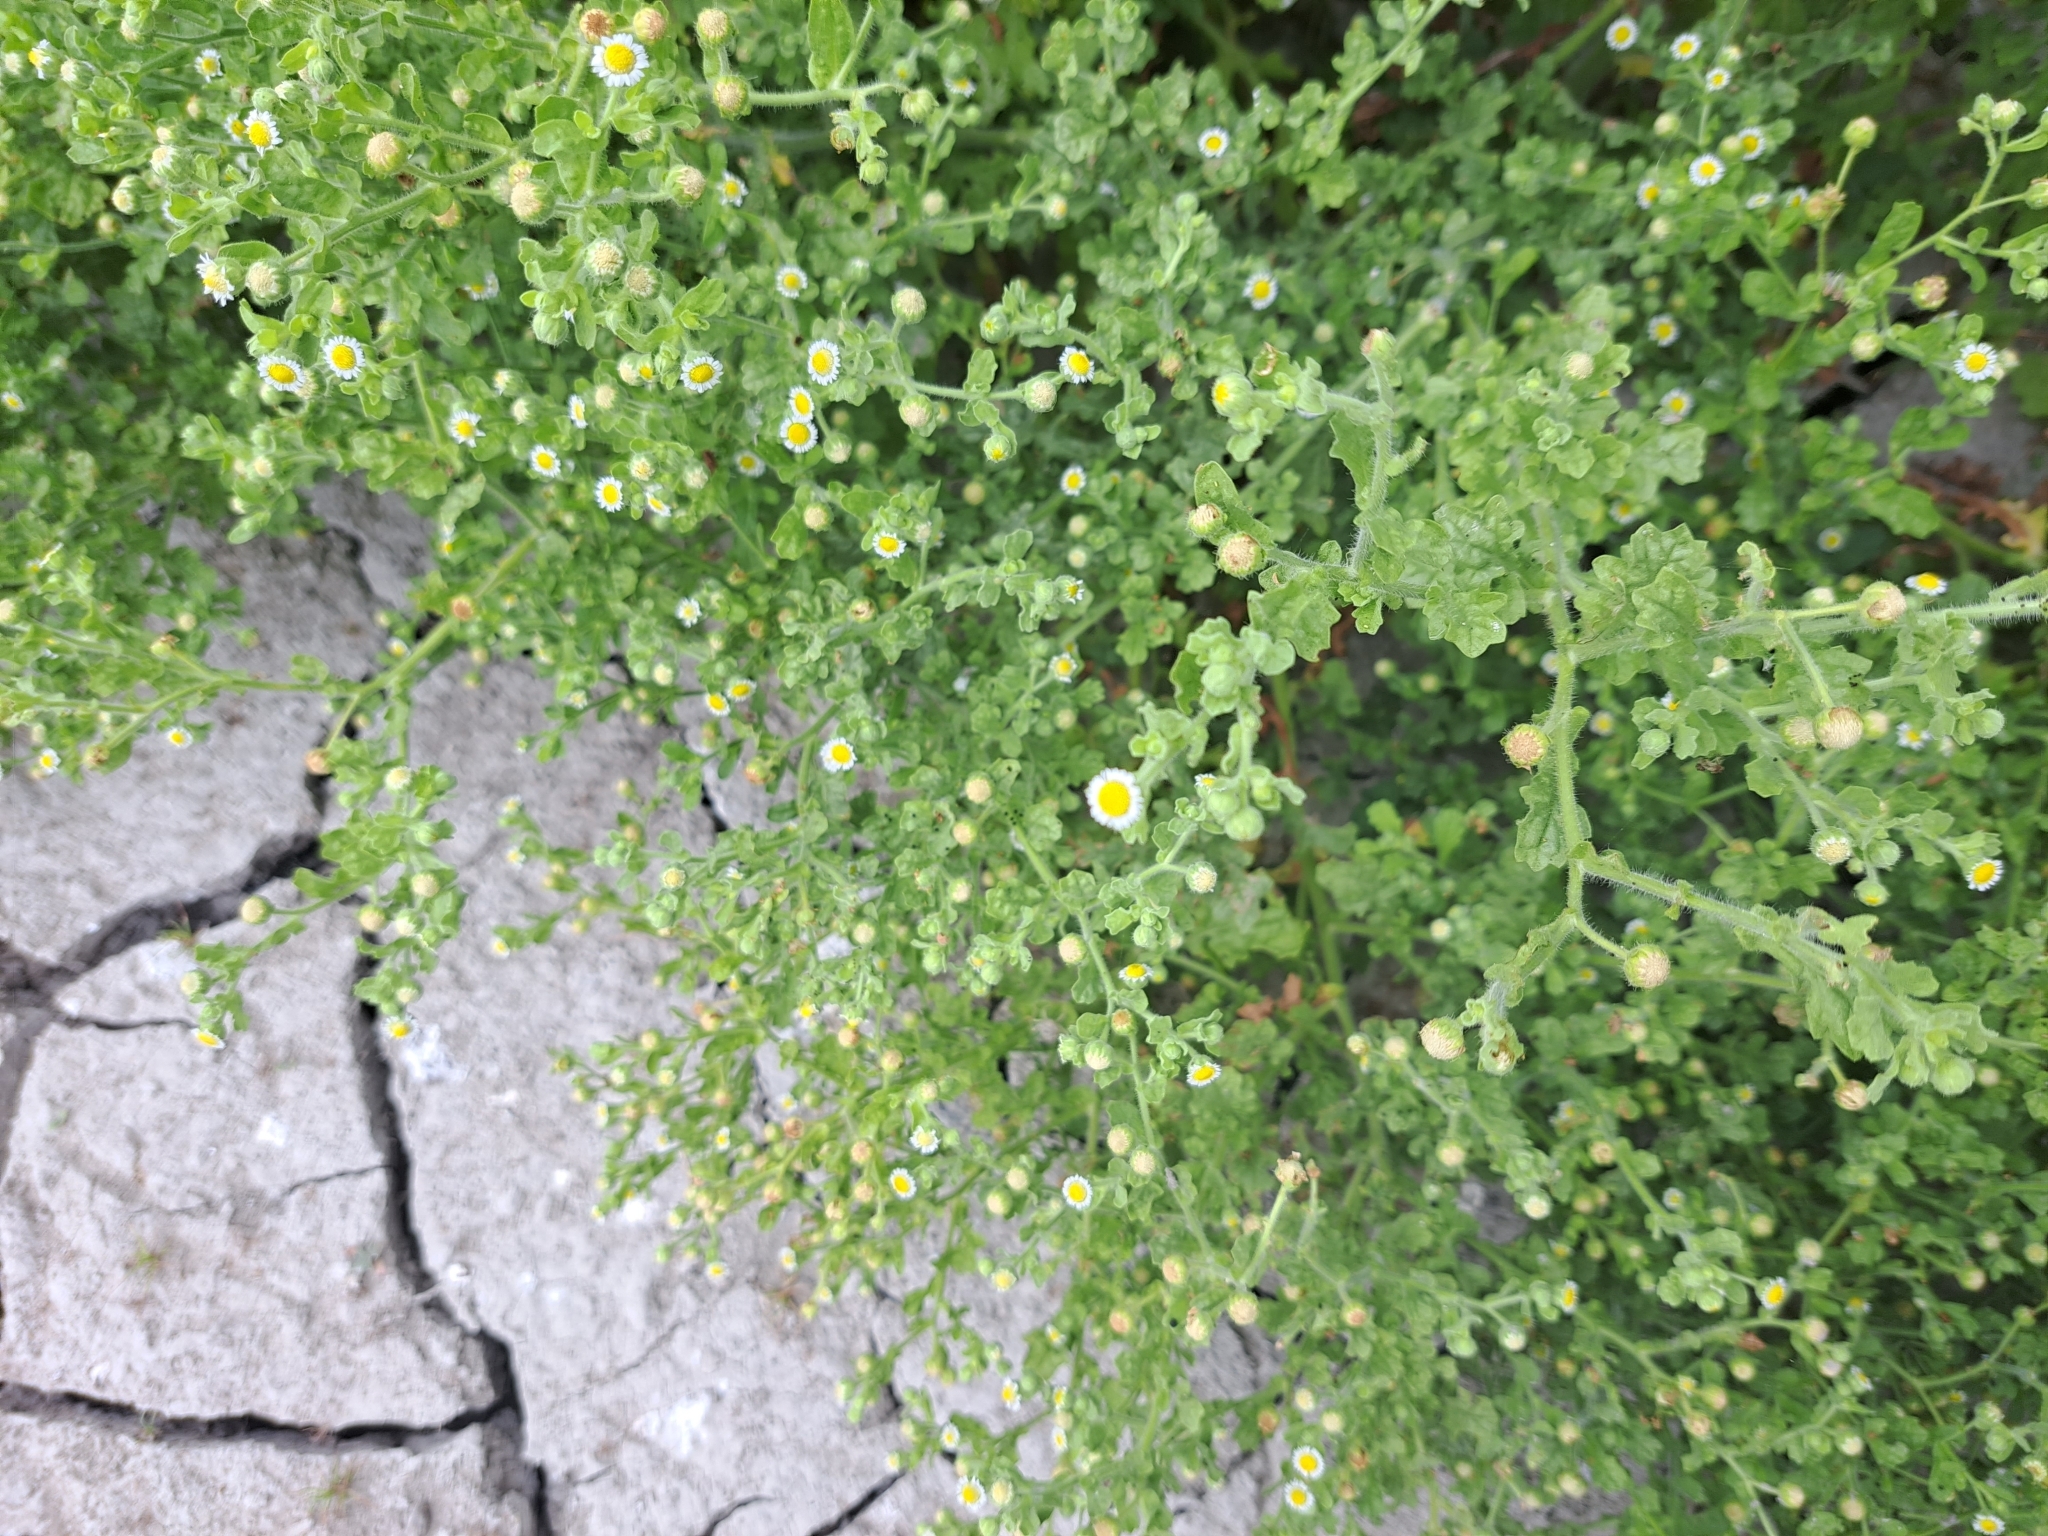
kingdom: Plantae
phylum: Tracheophyta
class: Magnoliopsida
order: Asterales
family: Asteraceae
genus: Egletes
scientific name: Egletes viscosa
